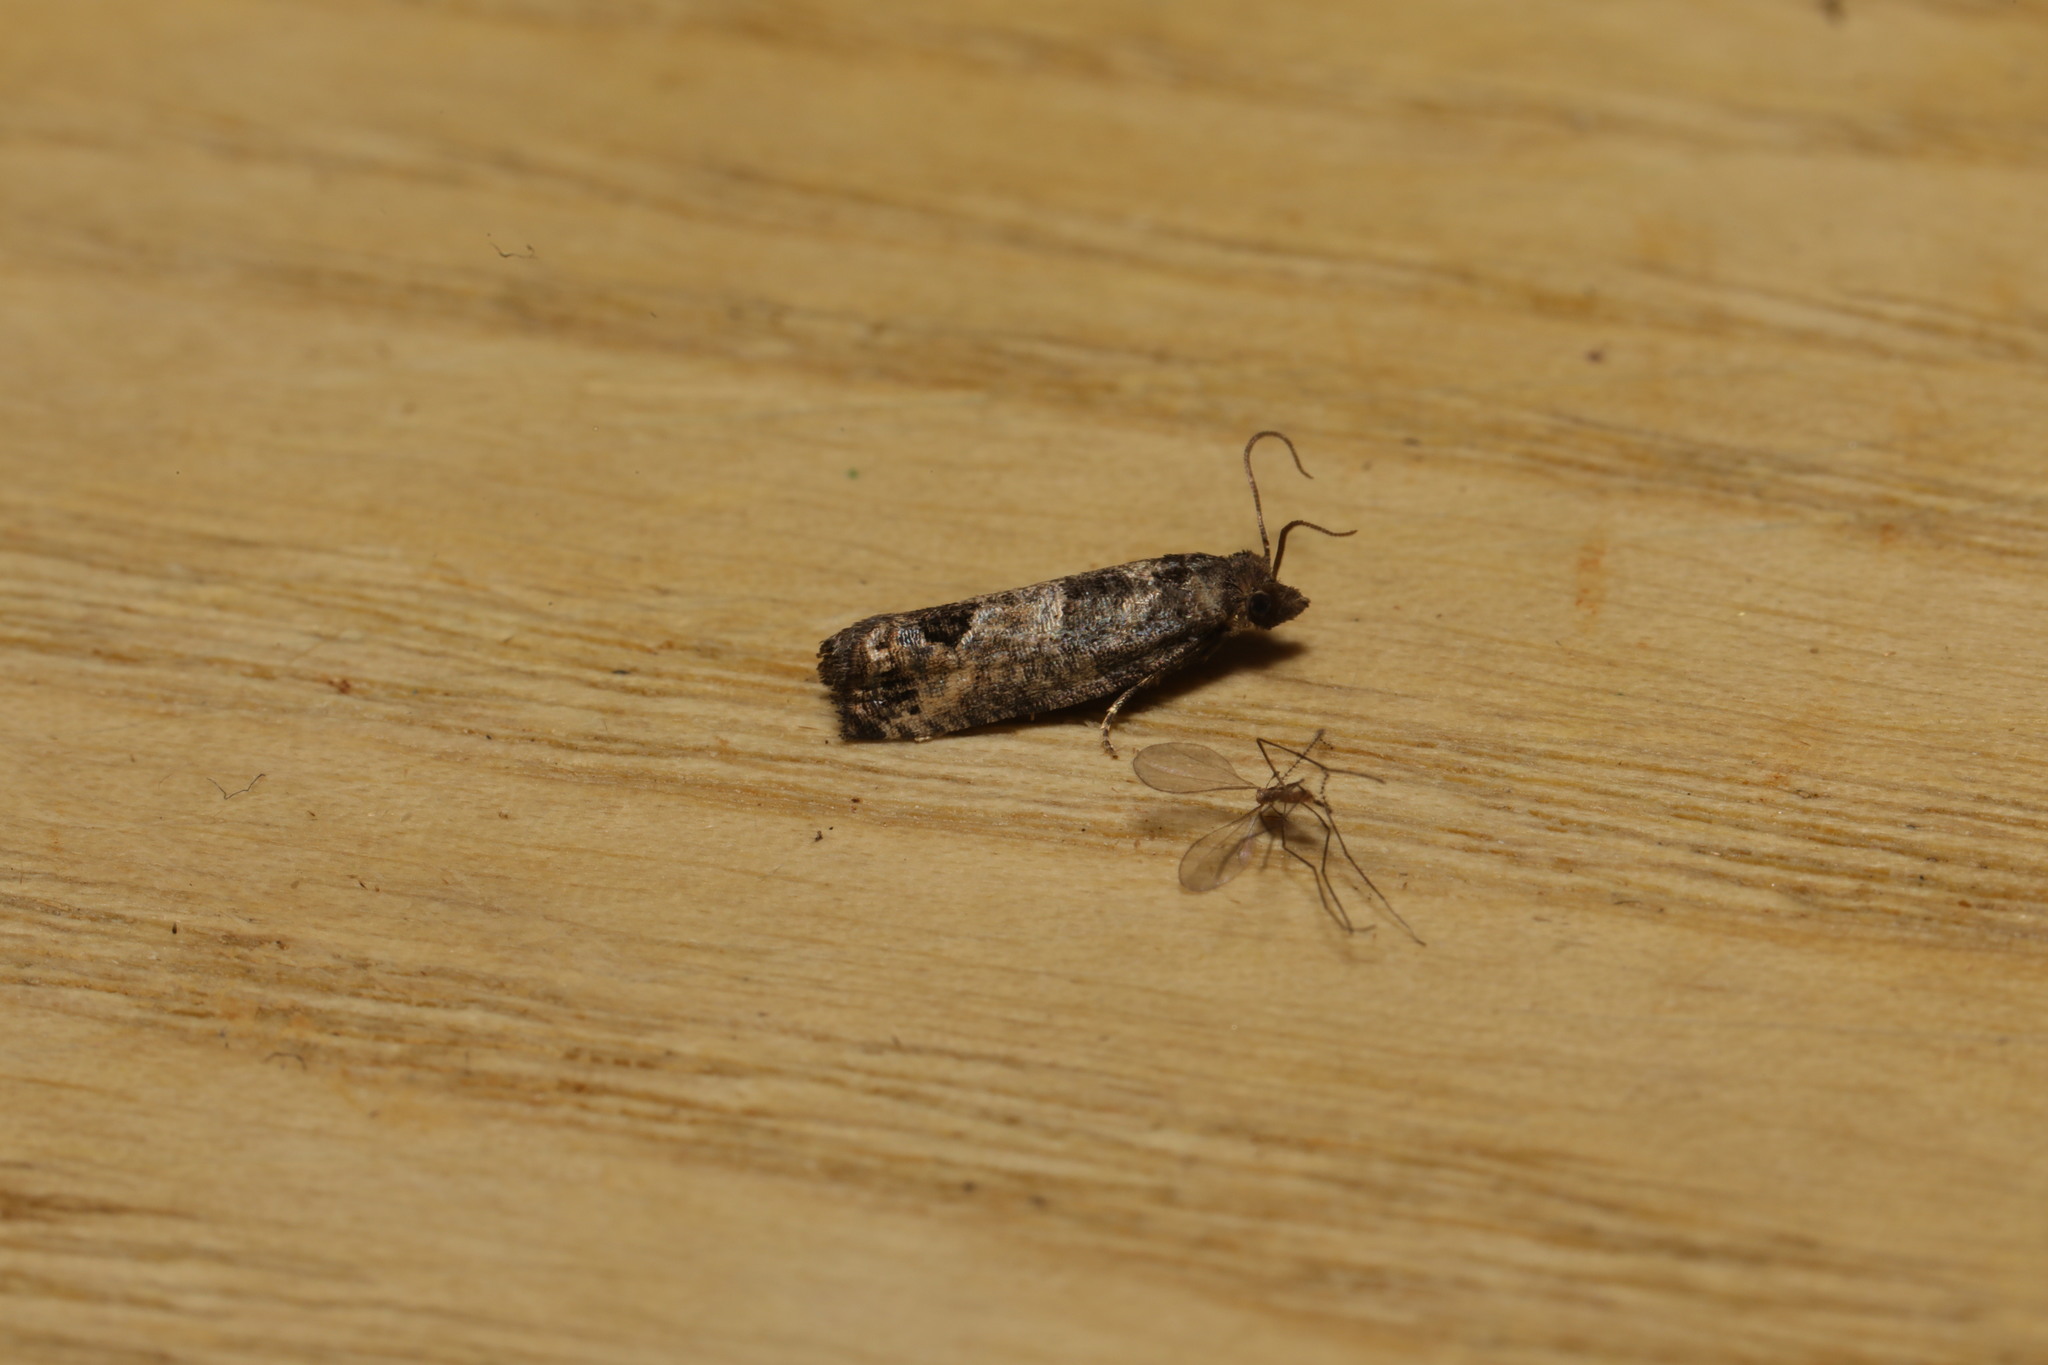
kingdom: Animalia
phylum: Arthropoda
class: Insecta
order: Lepidoptera
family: Tortricidae
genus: Spilonota
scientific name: Spilonota ocellana
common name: Bud moth
